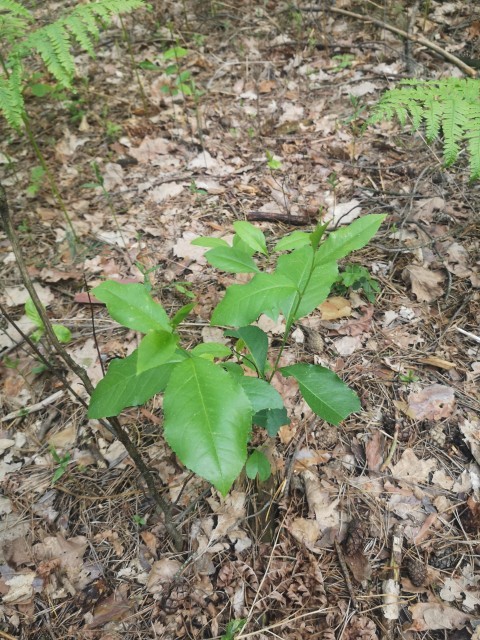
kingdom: Plantae
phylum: Tracheophyta
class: Magnoliopsida
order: Rosales
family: Rosaceae
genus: Prunus
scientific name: Prunus serotina
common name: Black cherry
